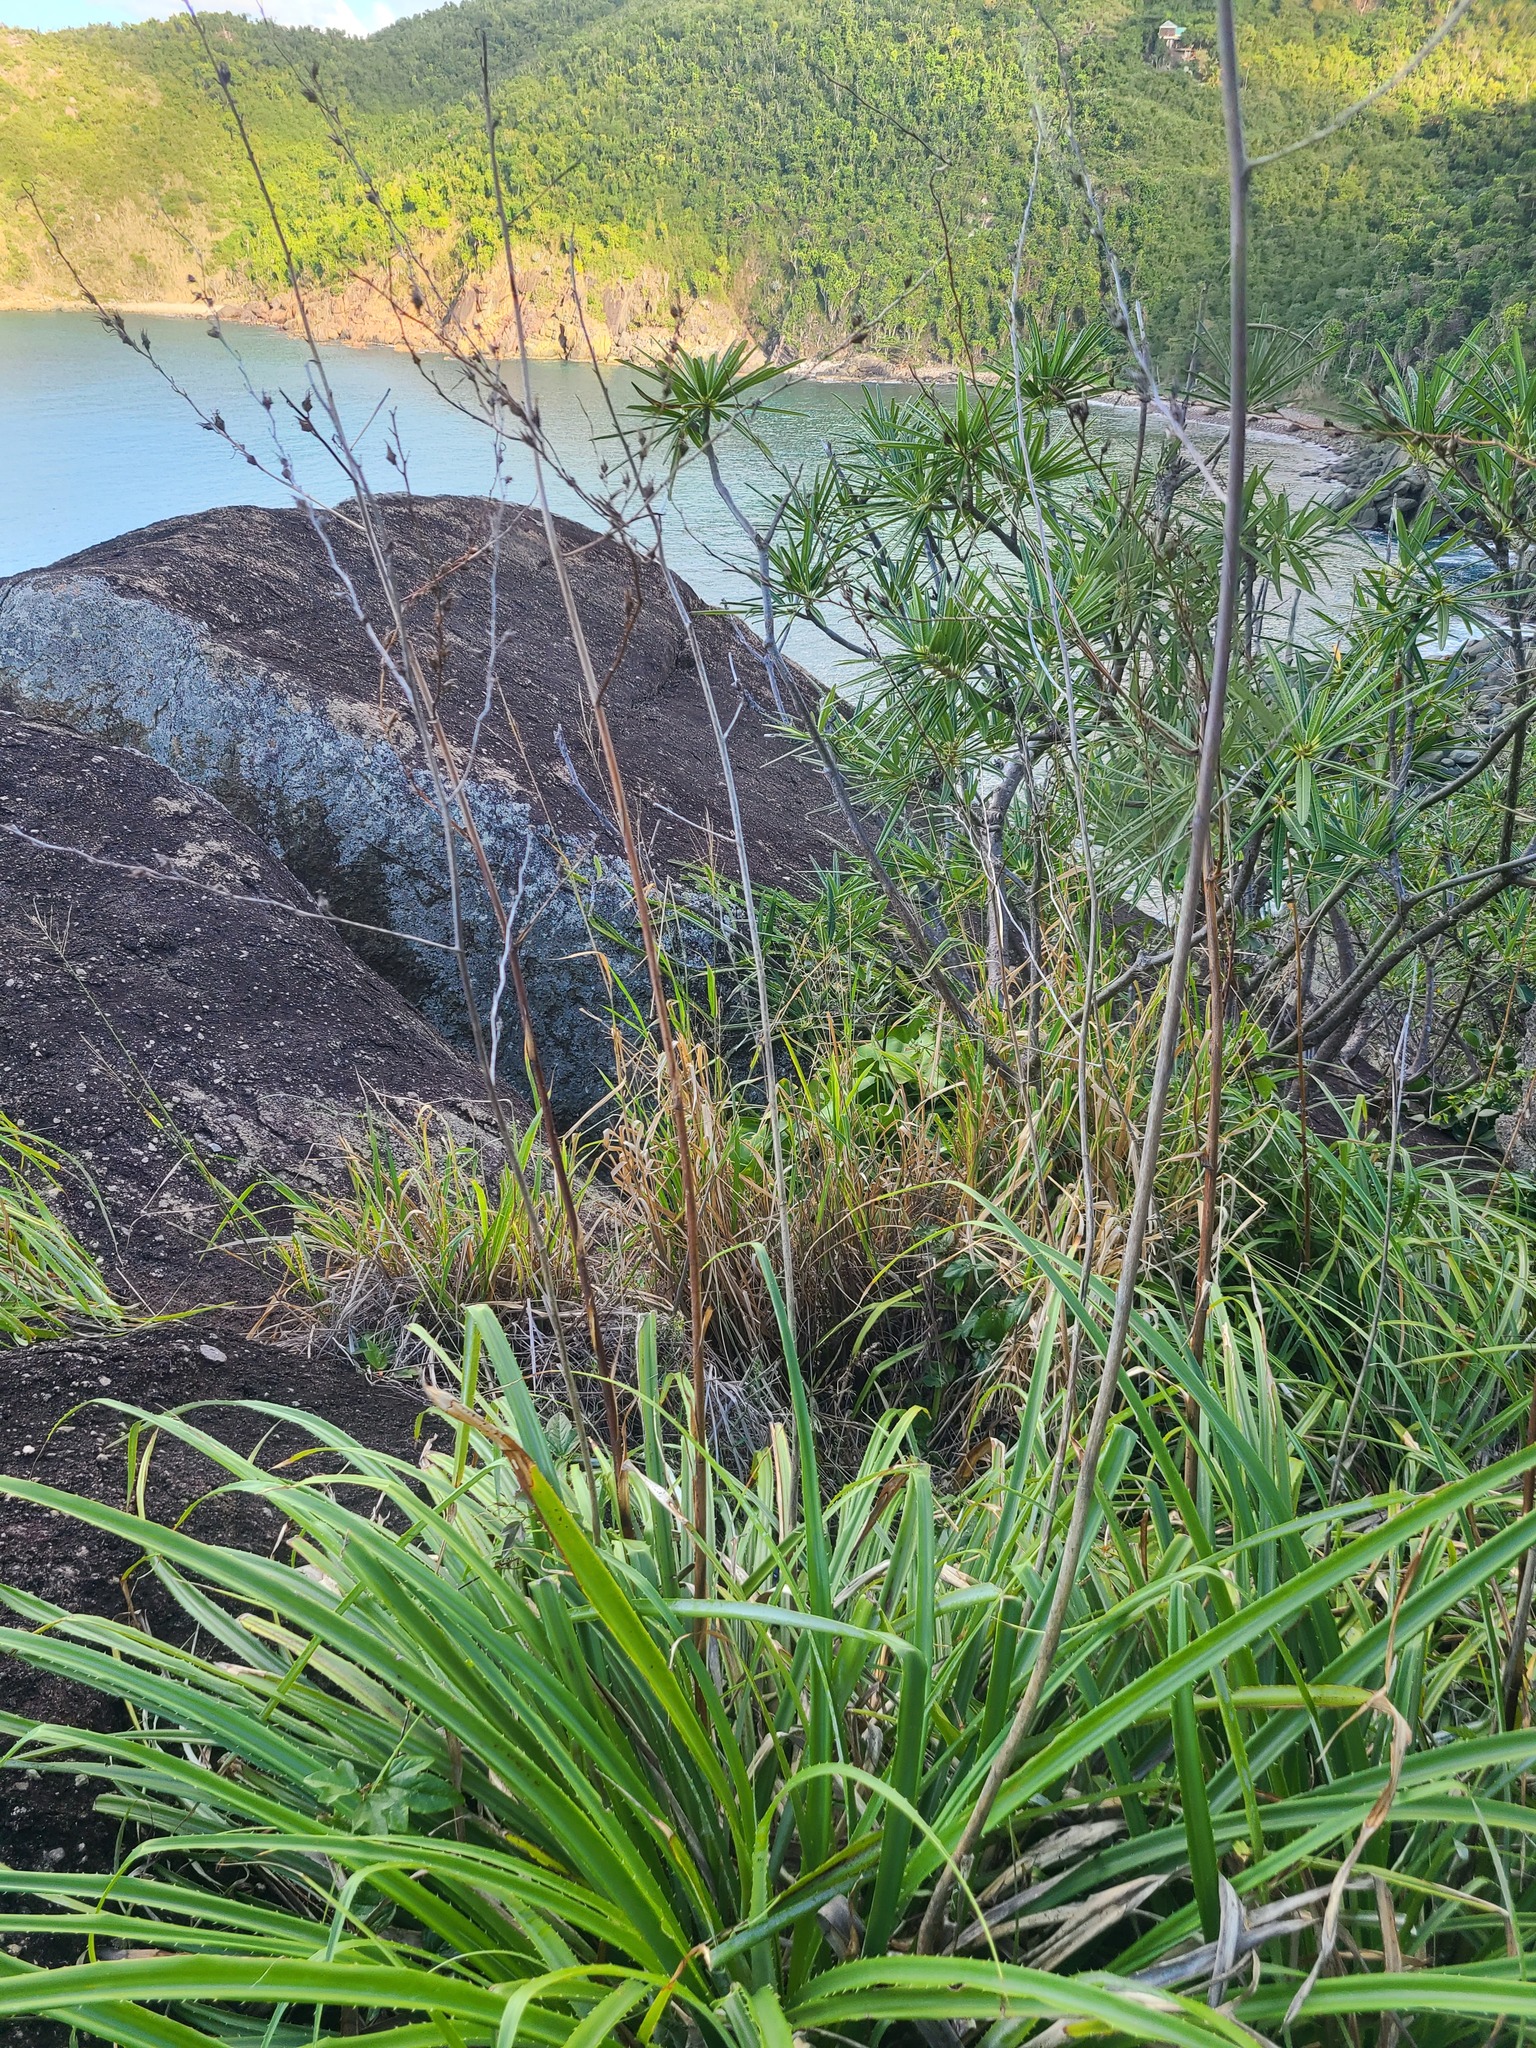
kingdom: Plantae
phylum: Tracheophyta
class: Liliopsida
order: Poales
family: Bromeliaceae
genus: Pitcairnia
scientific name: Pitcairnia jareckii
